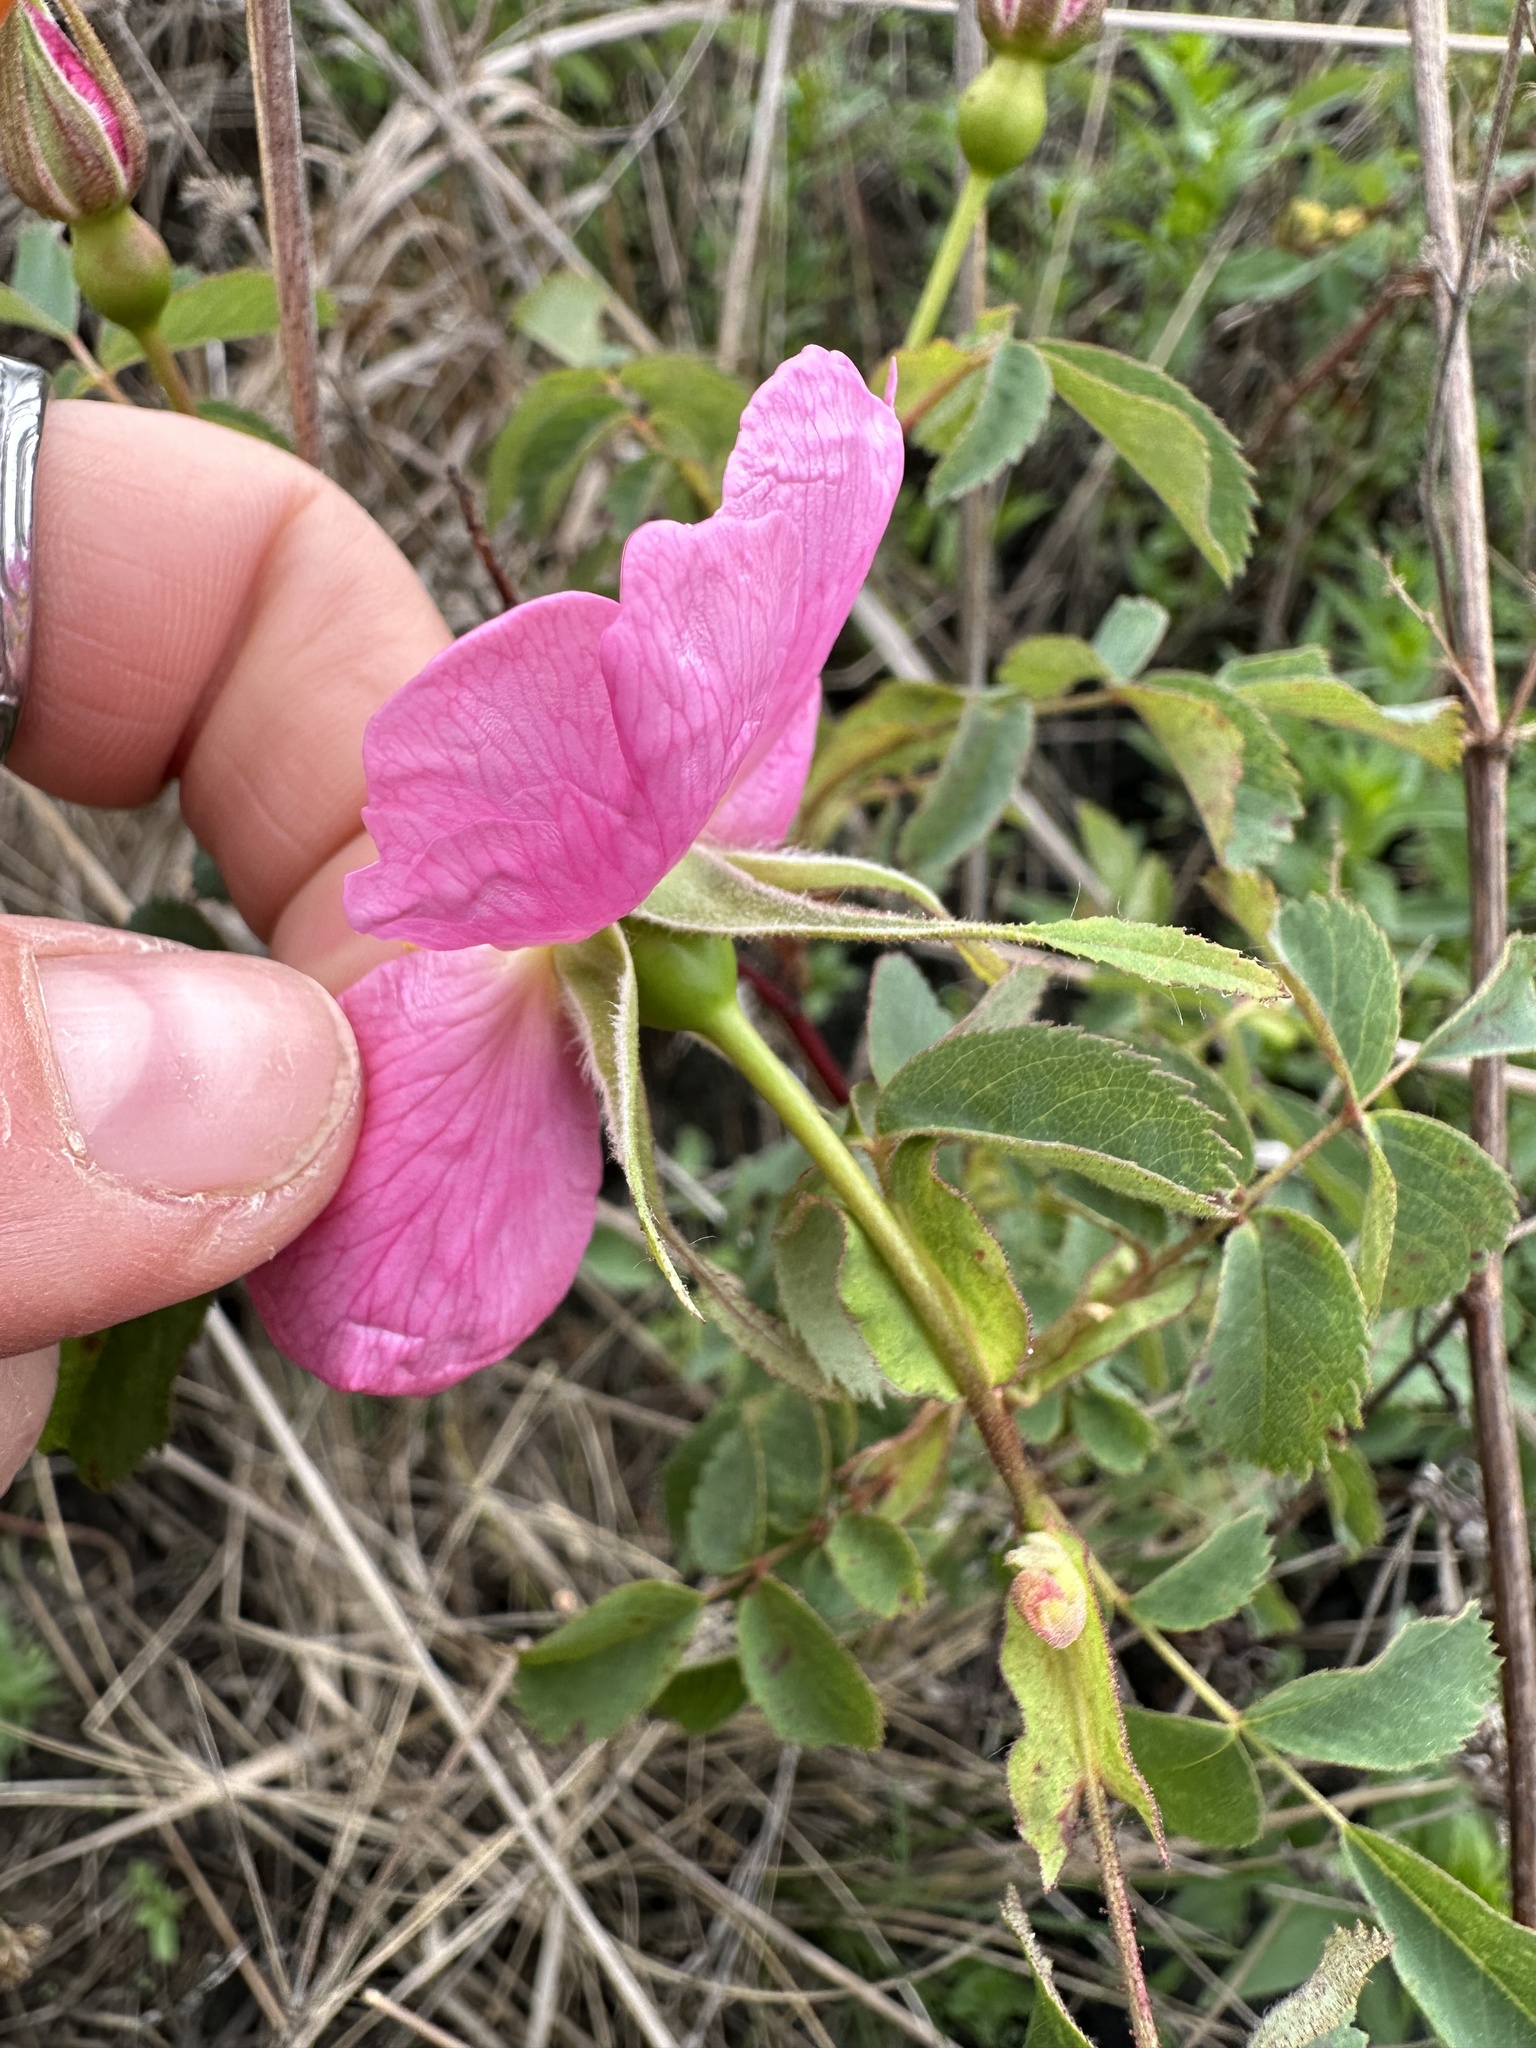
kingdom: Plantae
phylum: Tracheophyta
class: Magnoliopsida
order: Rosales
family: Rosaceae
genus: Rosa
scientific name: Rosa nutkana
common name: Nootka rose
